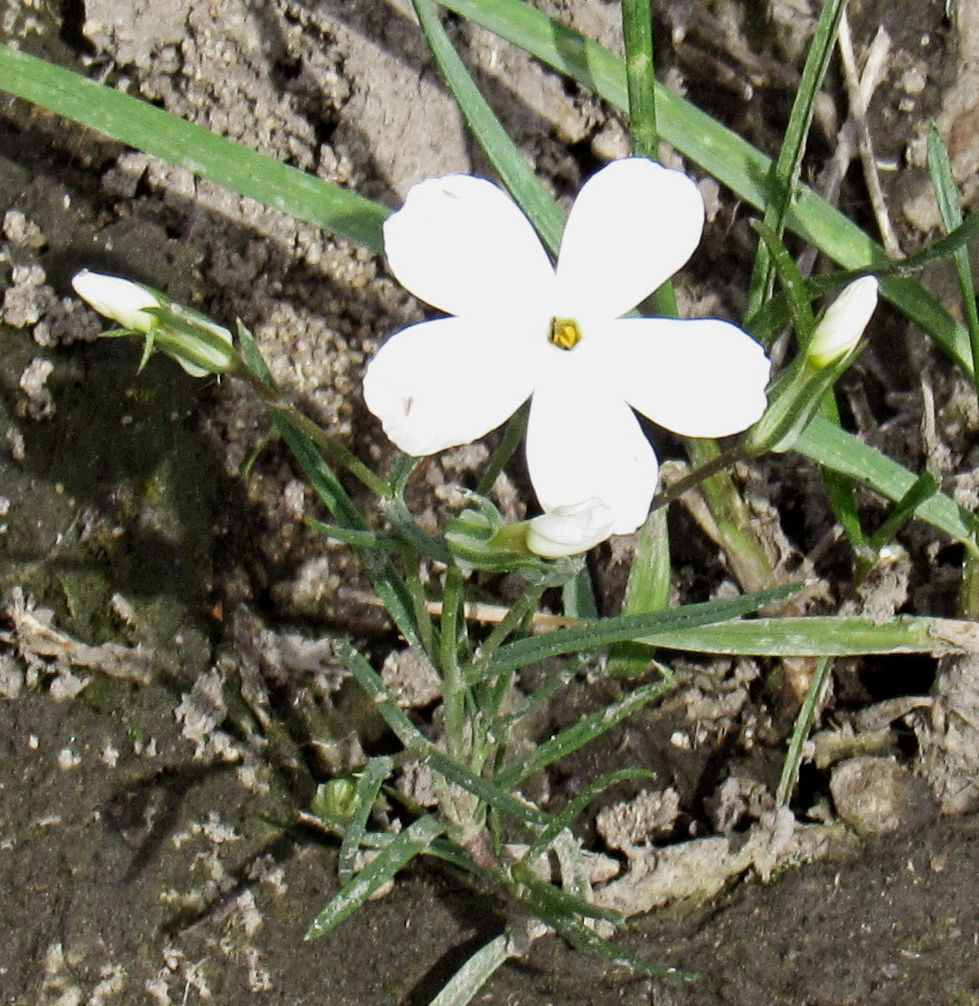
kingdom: Plantae
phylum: Tracheophyta
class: Magnoliopsida
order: Ericales
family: Polemoniaceae
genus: Phlox
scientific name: Phlox longifolia
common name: Longleaf phlox
